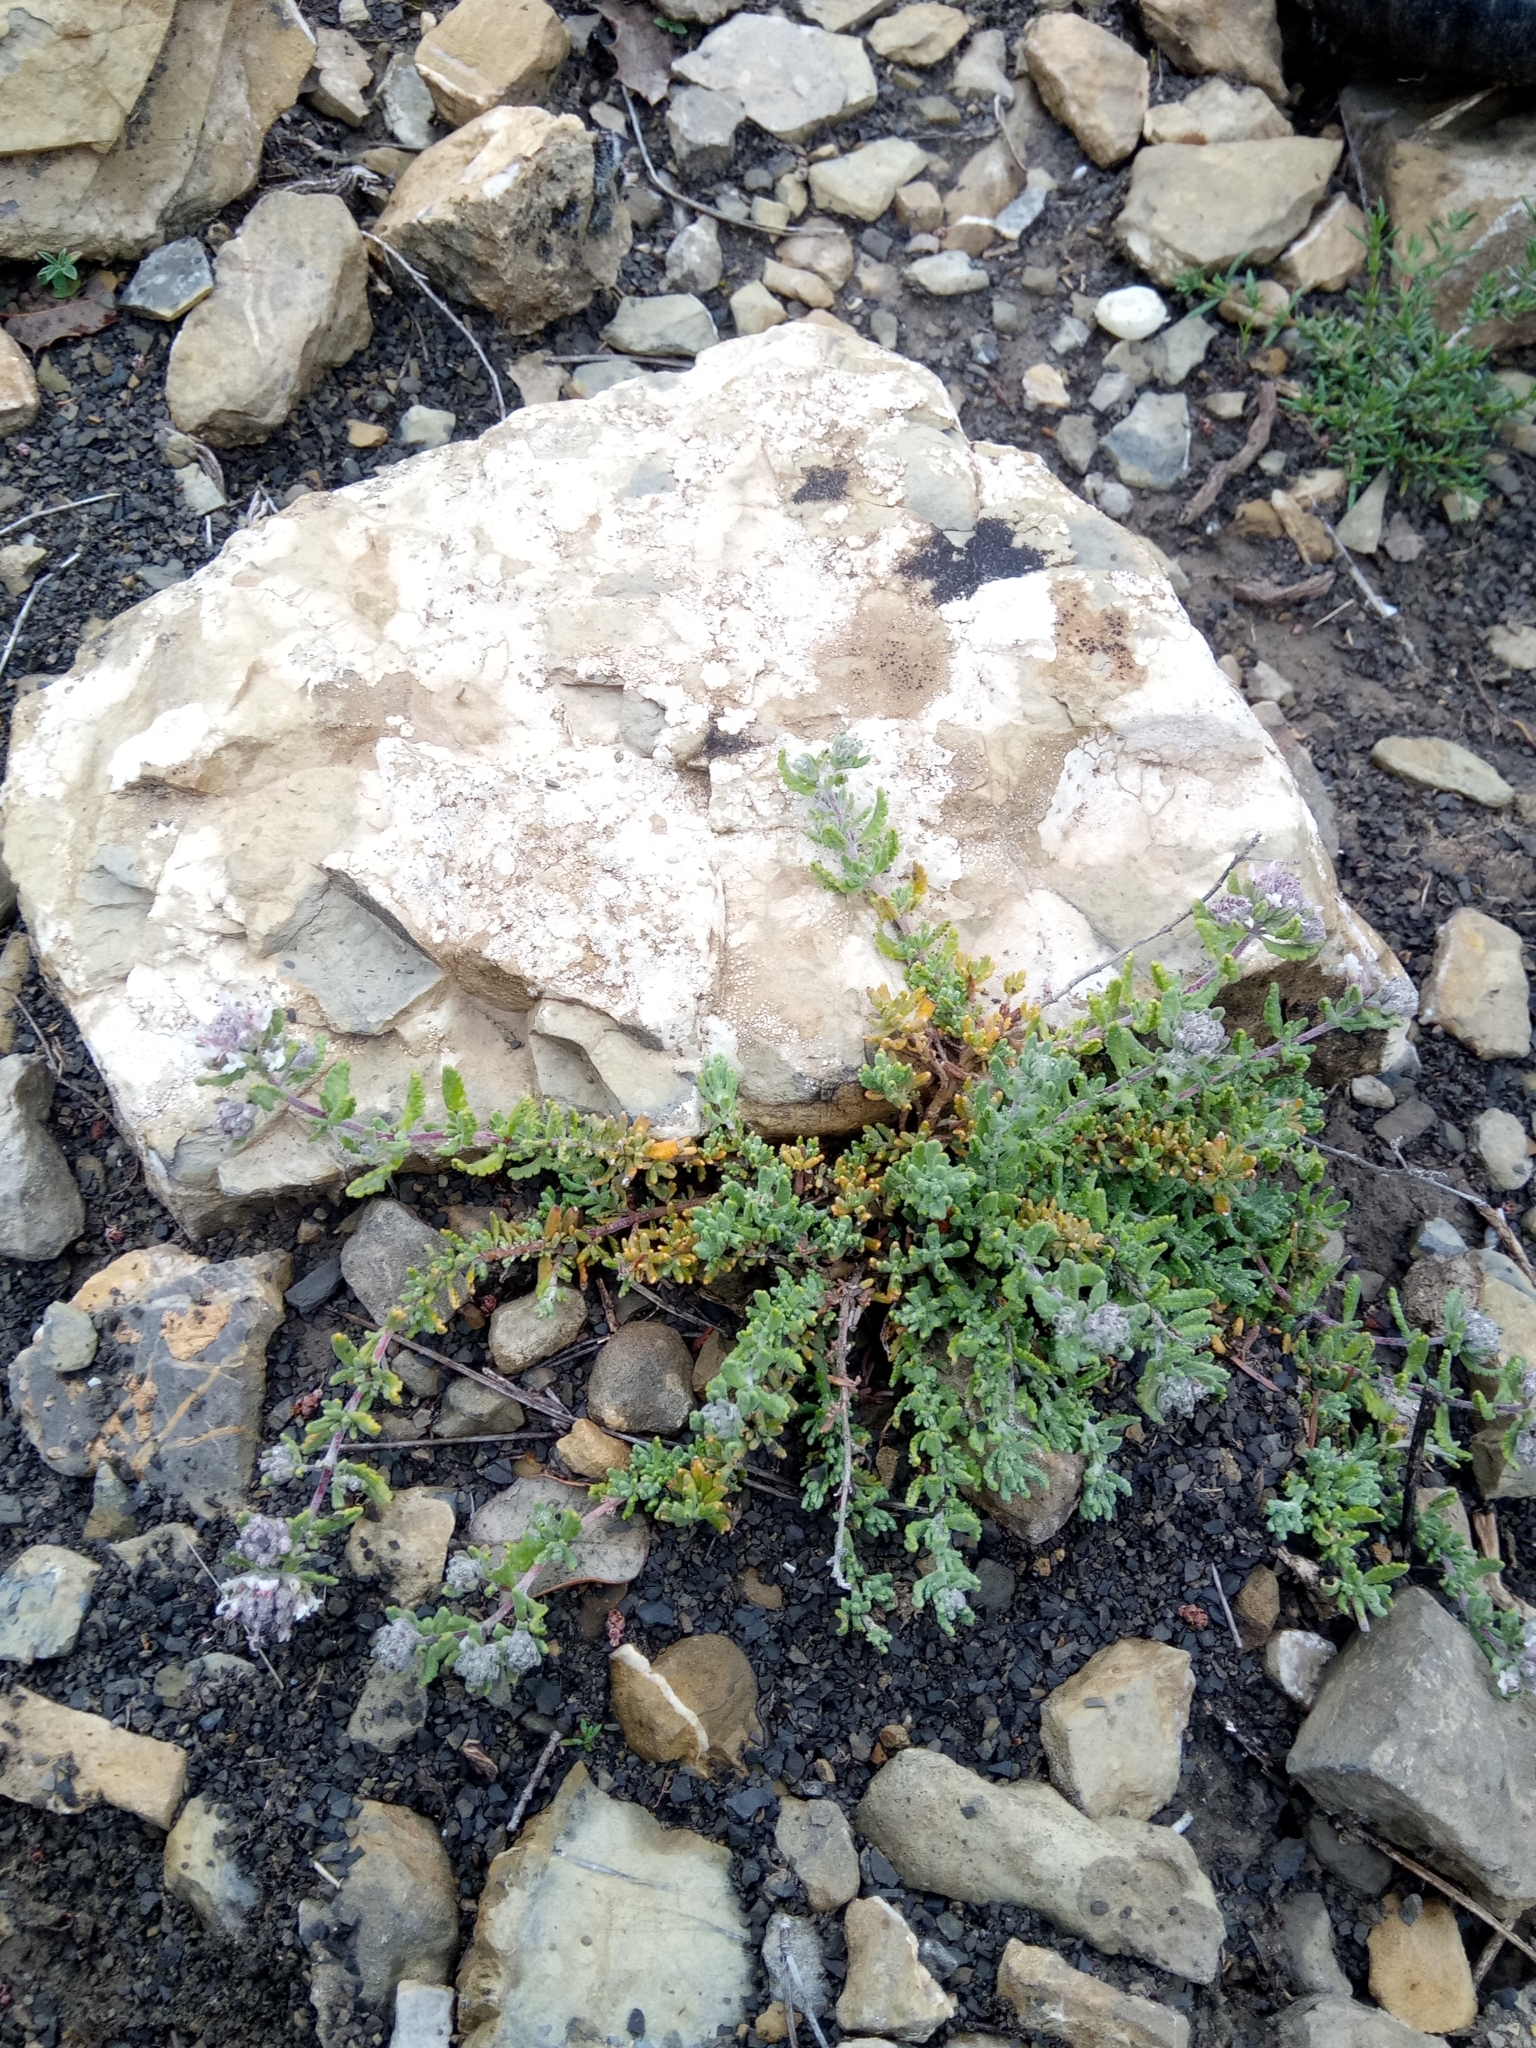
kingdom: Plantae
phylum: Tracheophyta
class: Magnoliopsida
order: Lamiales
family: Lamiaceae
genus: Teucrium
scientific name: Teucrium capitatum
